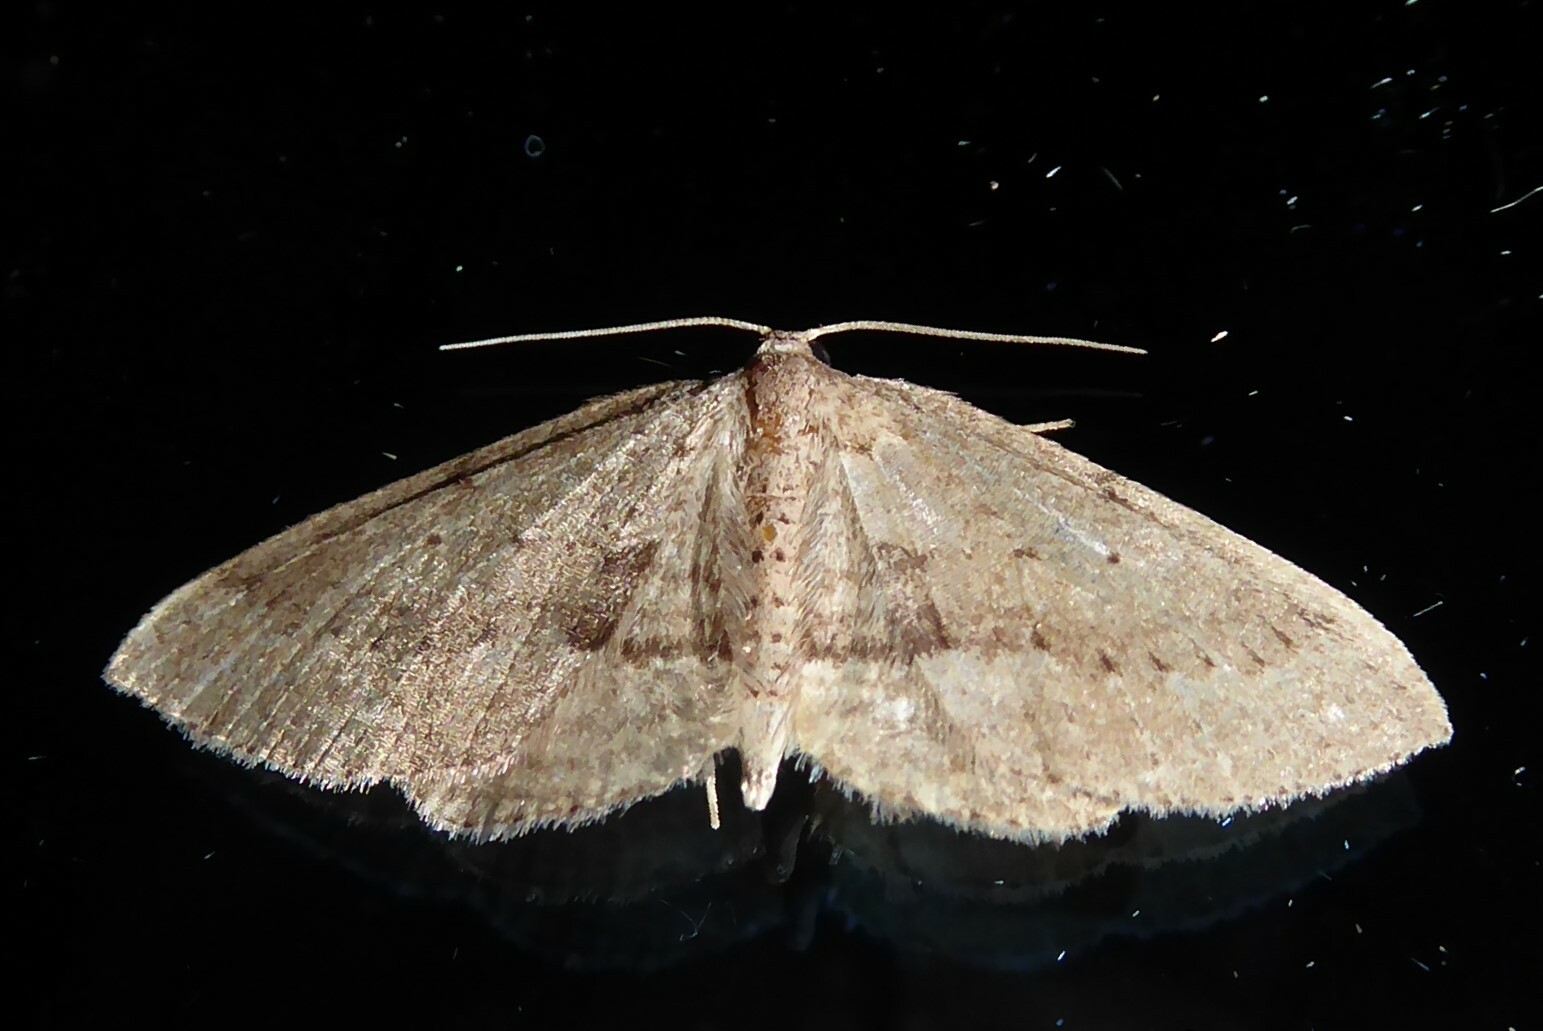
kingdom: Animalia
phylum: Arthropoda
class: Insecta
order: Lepidoptera
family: Geometridae
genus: Poecilasthena
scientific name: Poecilasthena schistaria
